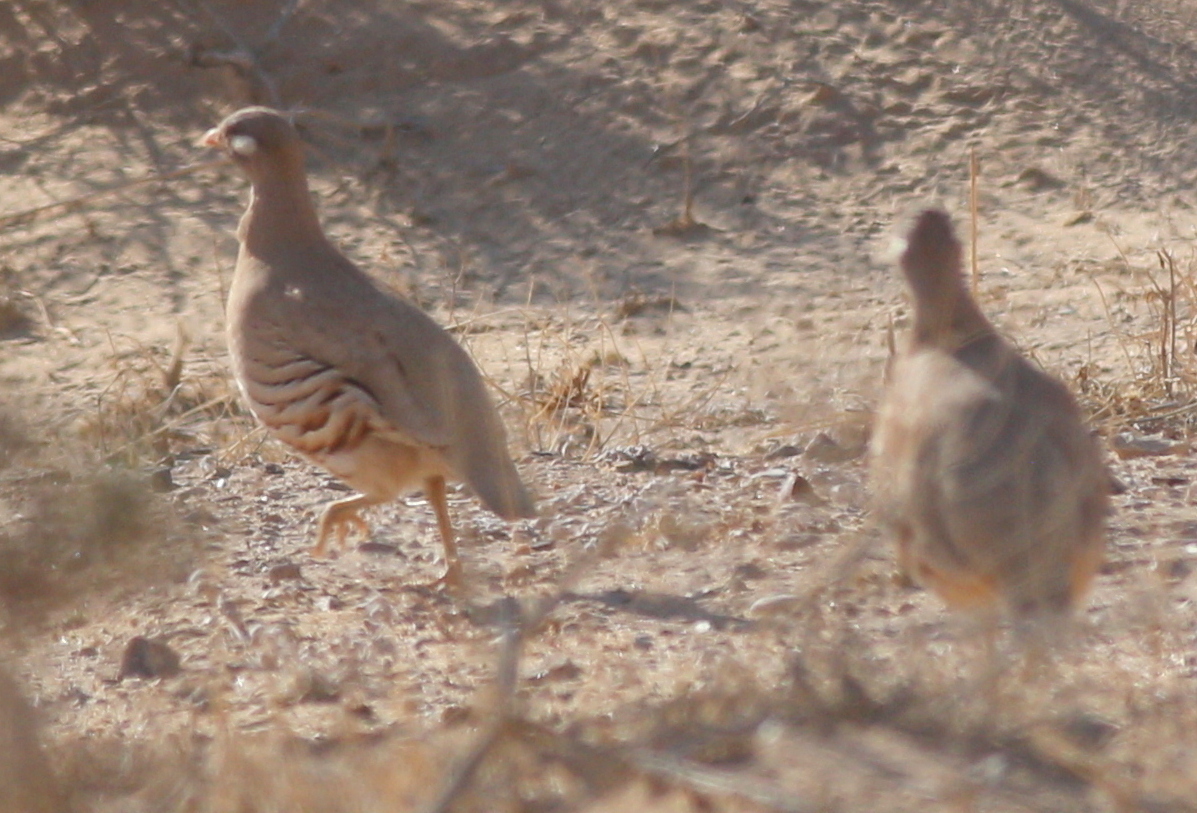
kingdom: Animalia
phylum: Chordata
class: Aves
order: Galliformes
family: Phasianidae
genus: Ammoperdix
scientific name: Ammoperdix heyi
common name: Sand partridge
